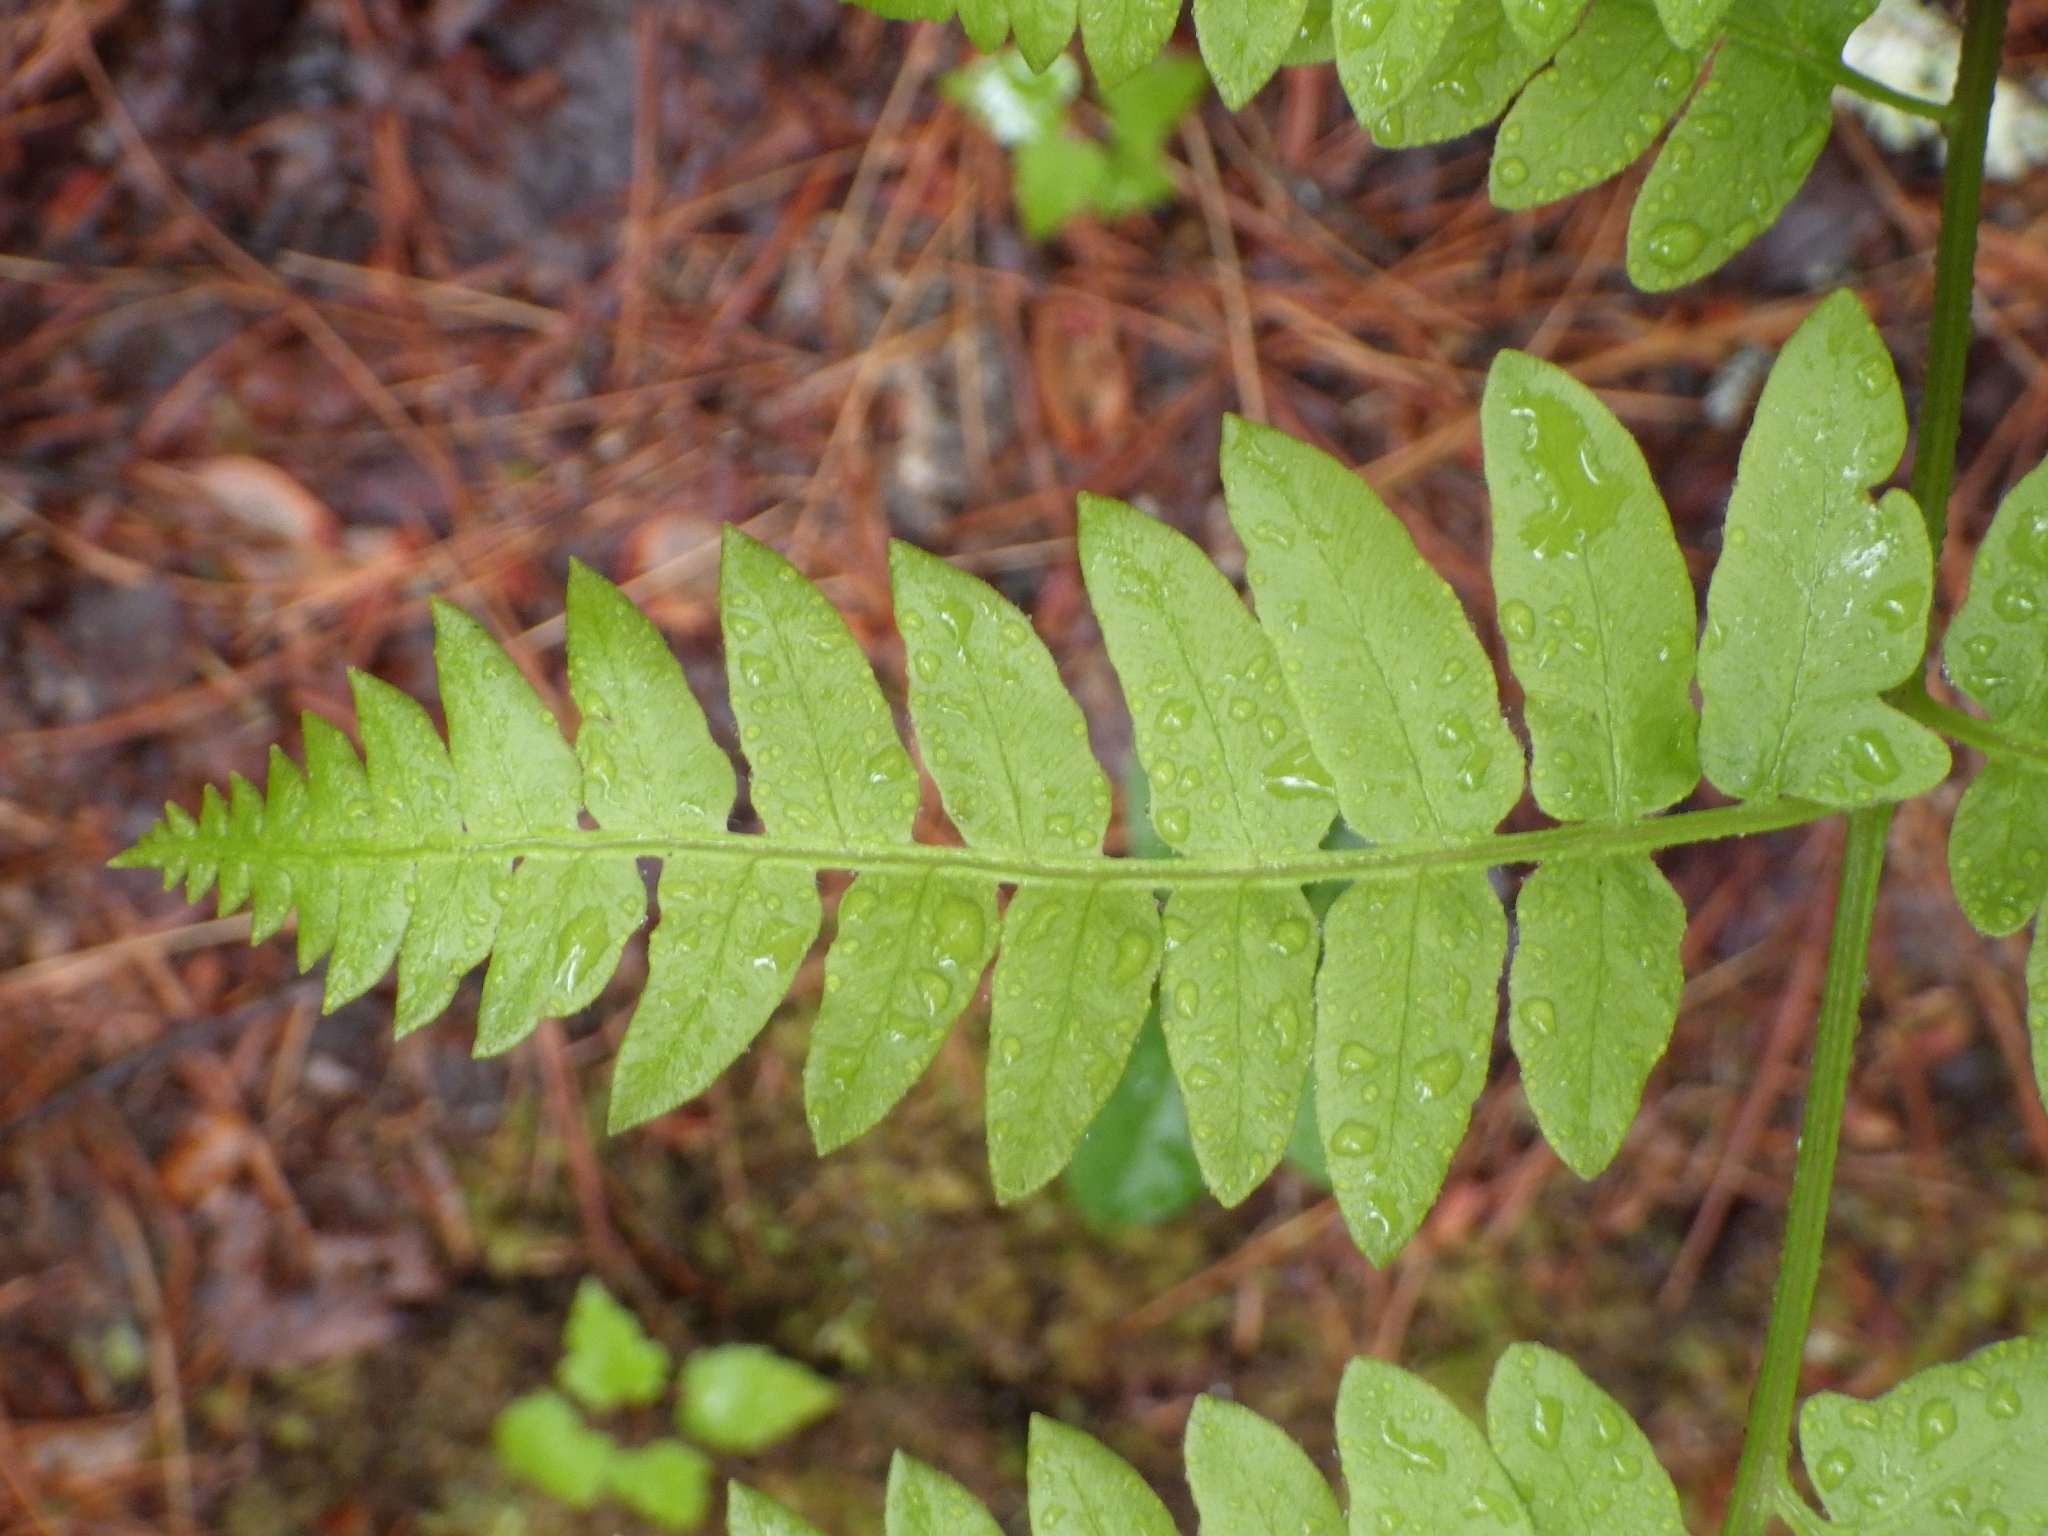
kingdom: Plantae
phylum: Tracheophyta
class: Polypodiopsida
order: Polypodiales
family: Dennstaedtiaceae
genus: Pteridium
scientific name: Pteridium aquilinum
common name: Bracken
